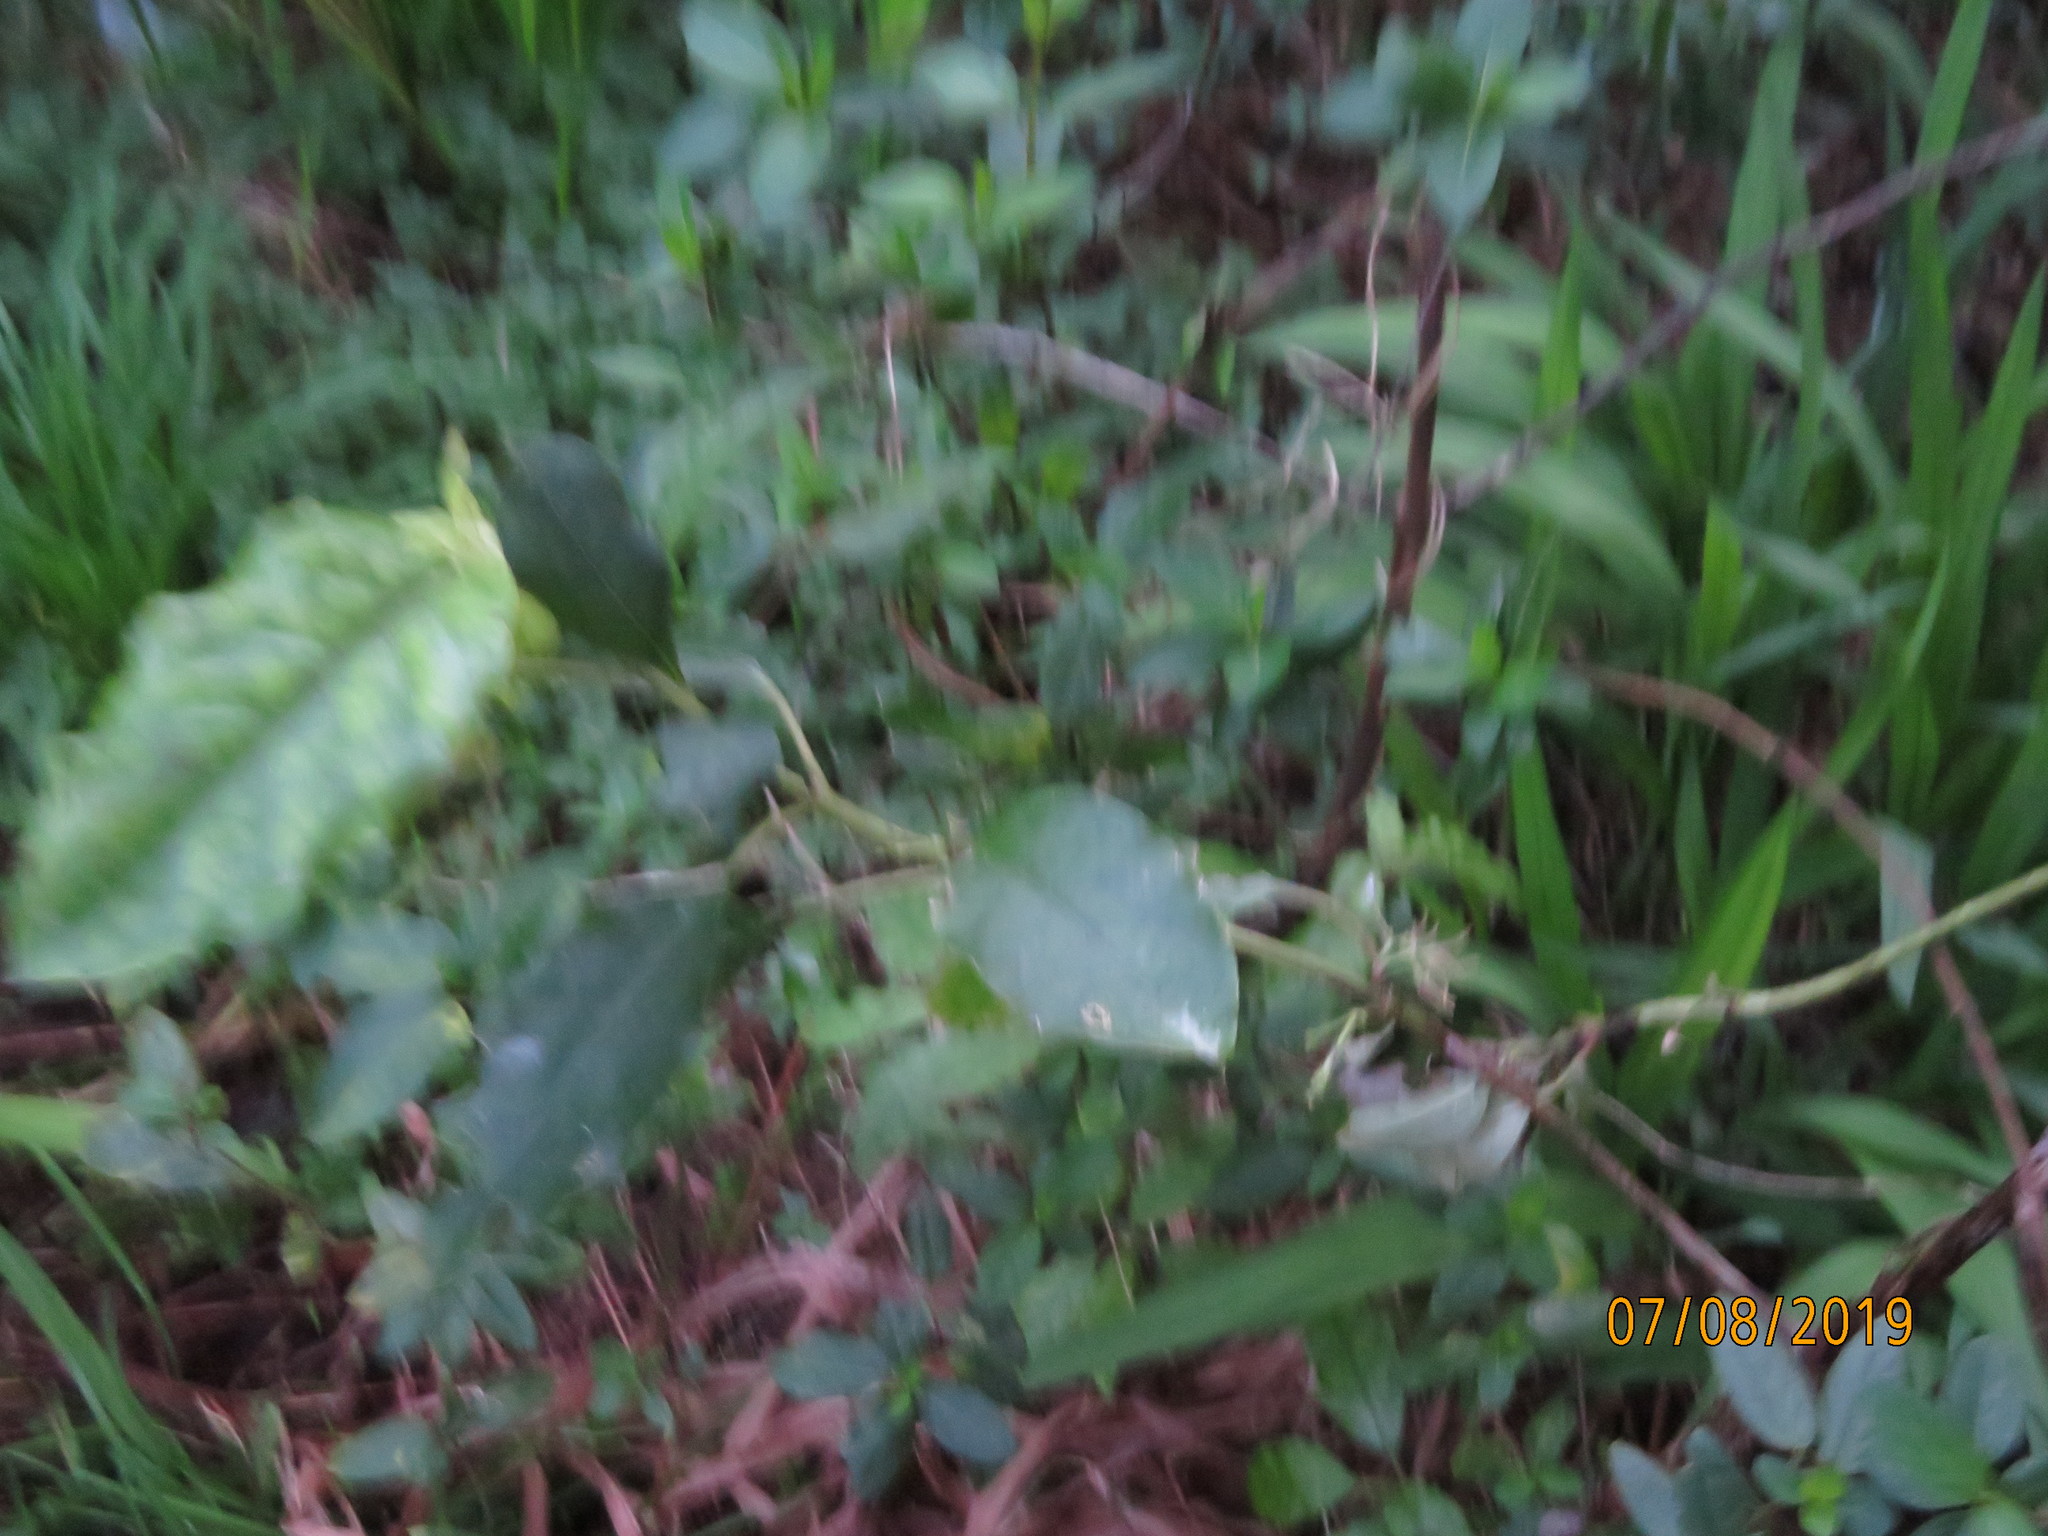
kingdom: Plantae
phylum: Tracheophyta
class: Magnoliopsida
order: Gentianales
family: Rubiaceae
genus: Coprosma
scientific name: Coprosma autumnalis
